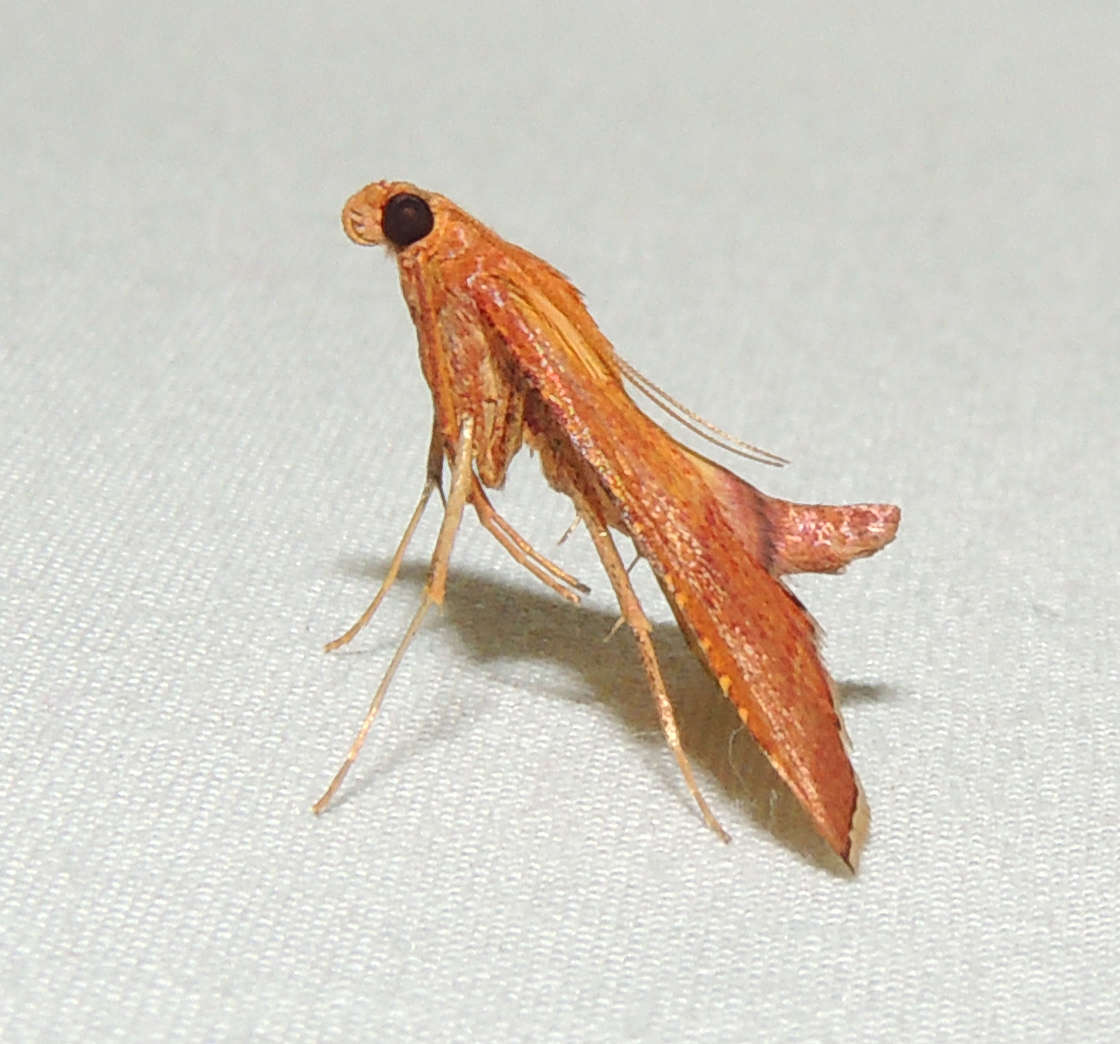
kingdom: Animalia
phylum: Arthropoda
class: Insecta
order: Lepidoptera
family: Pyralidae
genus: Endotricha
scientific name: Endotricha pyrosalis
